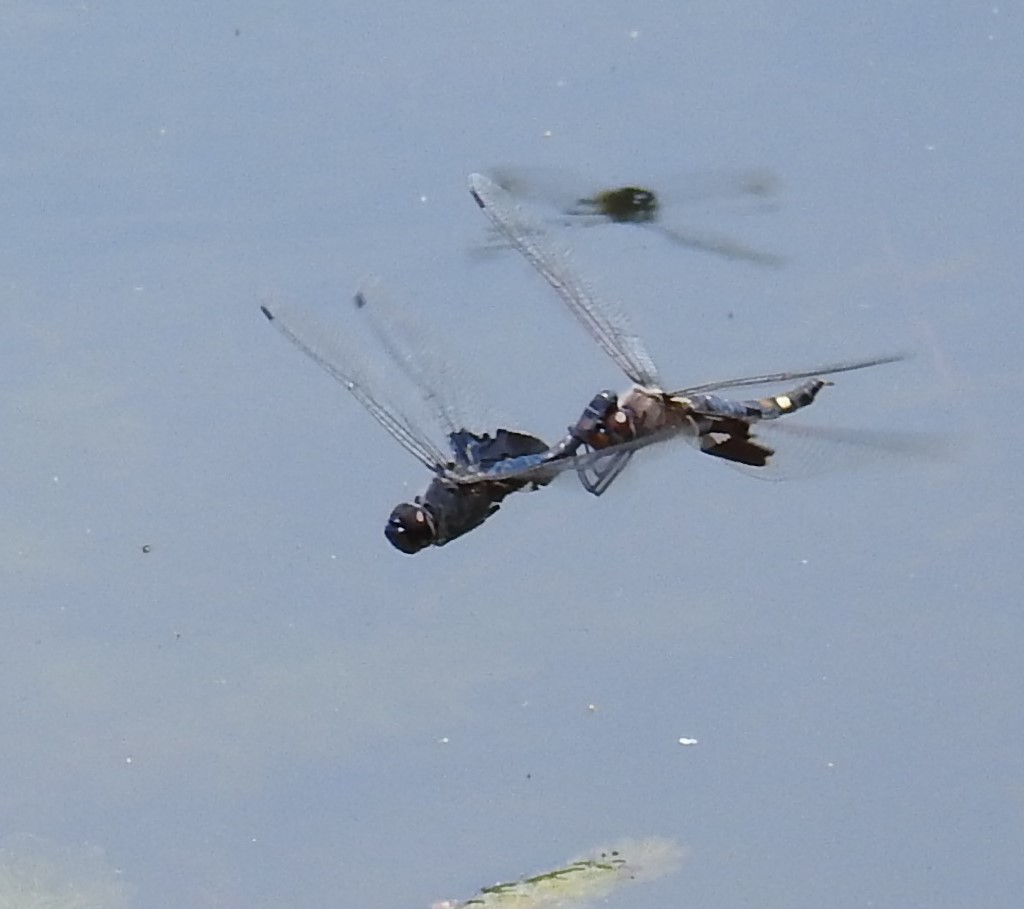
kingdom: Animalia
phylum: Arthropoda
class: Insecta
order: Odonata
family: Libellulidae
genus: Tramea
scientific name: Tramea lacerata
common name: Black saddlebags
